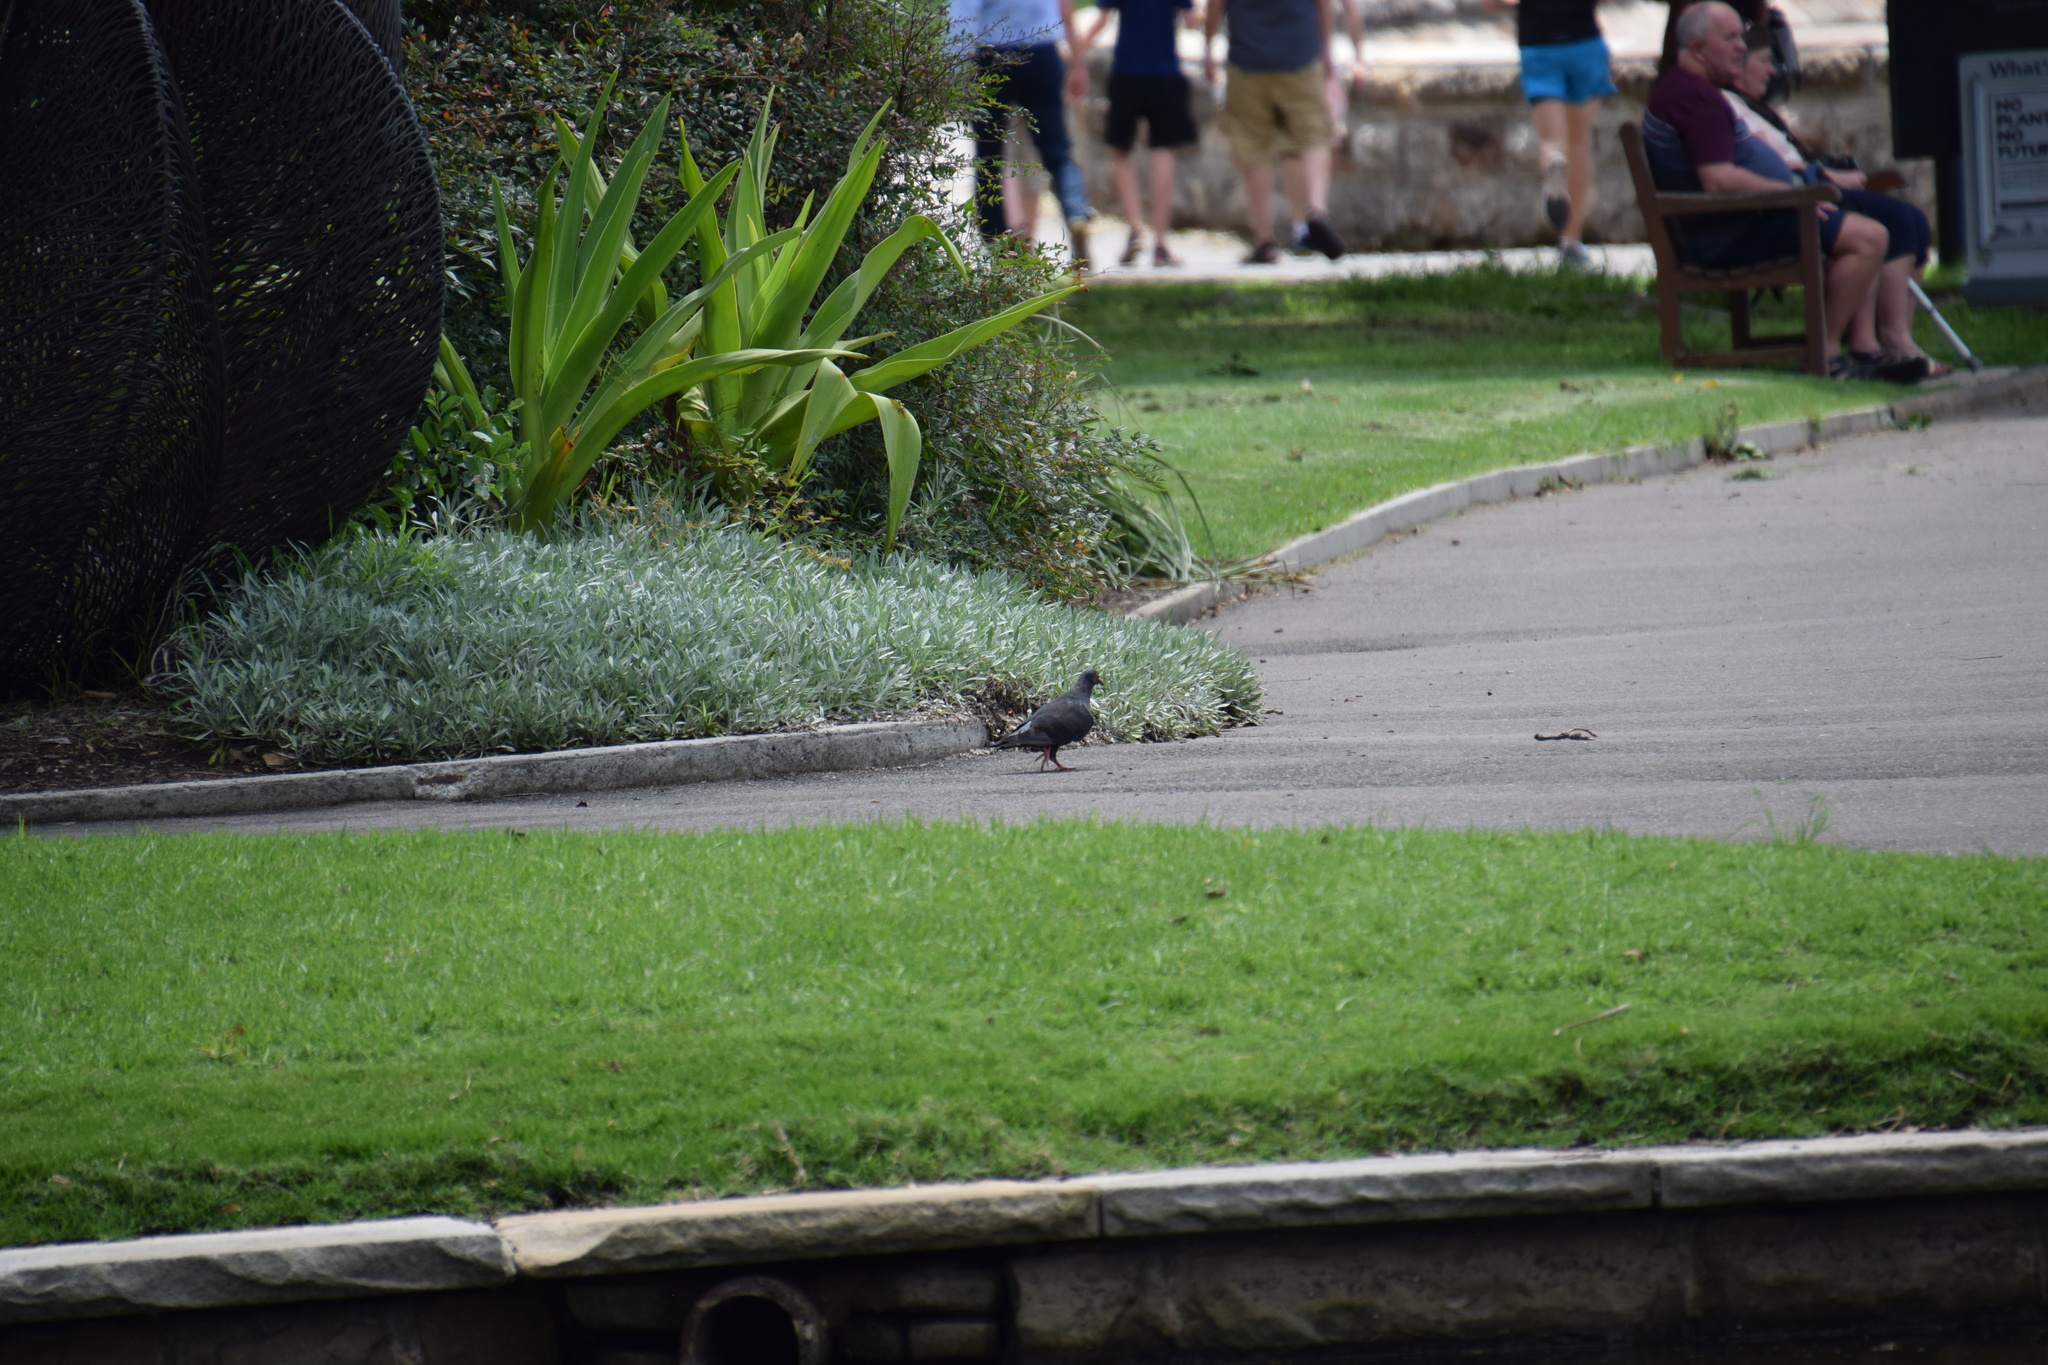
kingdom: Animalia
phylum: Chordata
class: Aves
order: Columbiformes
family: Columbidae
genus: Columba
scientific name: Columba livia
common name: Rock pigeon
